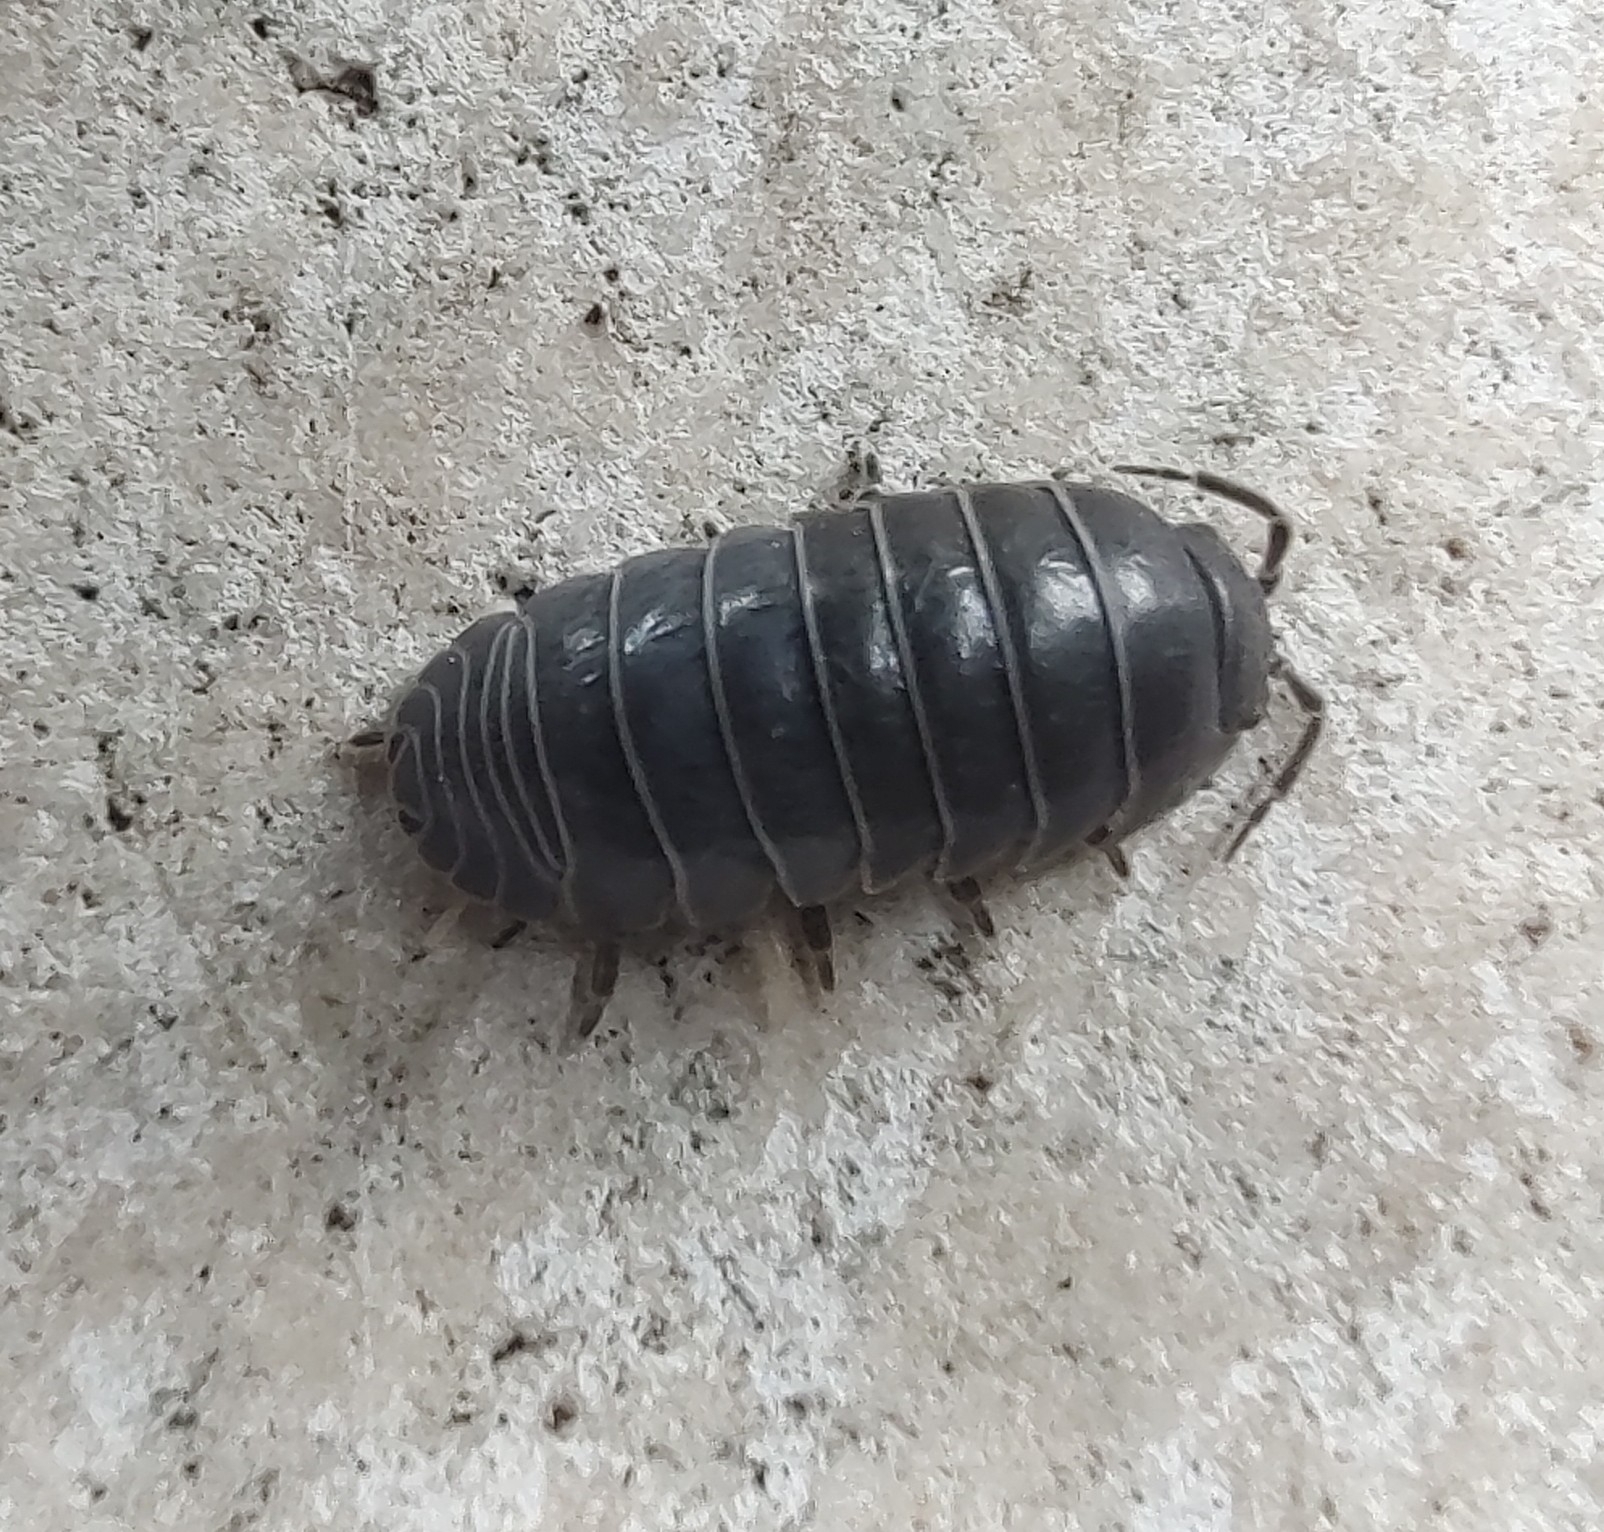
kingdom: Animalia
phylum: Arthropoda
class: Malacostraca
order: Isopoda
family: Armadillidiidae
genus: Armadillidium
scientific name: Armadillidium vulgare
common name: Common pill woodlouse
